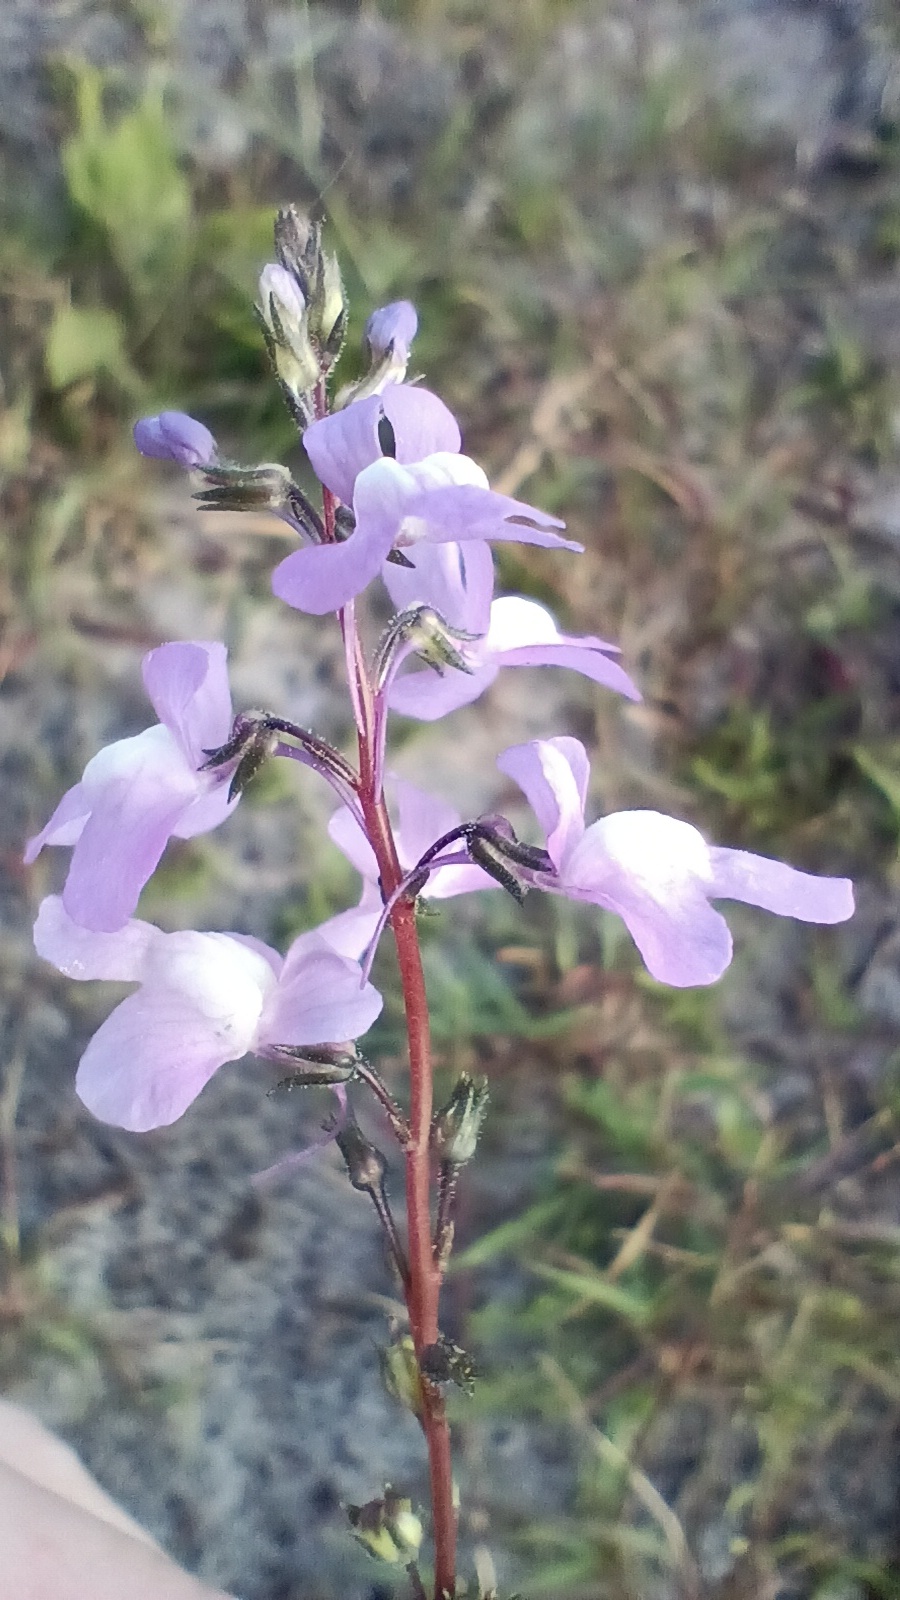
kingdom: Plantae
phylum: Tracheophyta
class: Magnoliopsida
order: Lamiales
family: Plantaginaceae
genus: Nuttallanthus
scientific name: Nuttallanthus canadensis
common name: Blue toadflax
